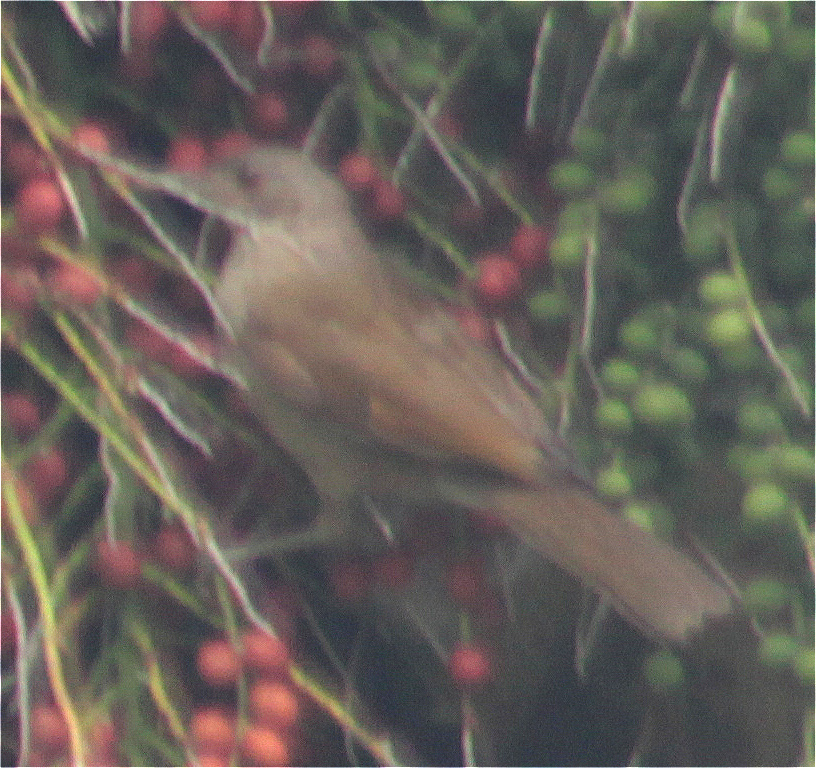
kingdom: Animalia
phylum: Chordata
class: Aves
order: Passeriformes
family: Turdidae
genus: Turdus
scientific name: Turdus leucomelas
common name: Pale-breasted thrush
